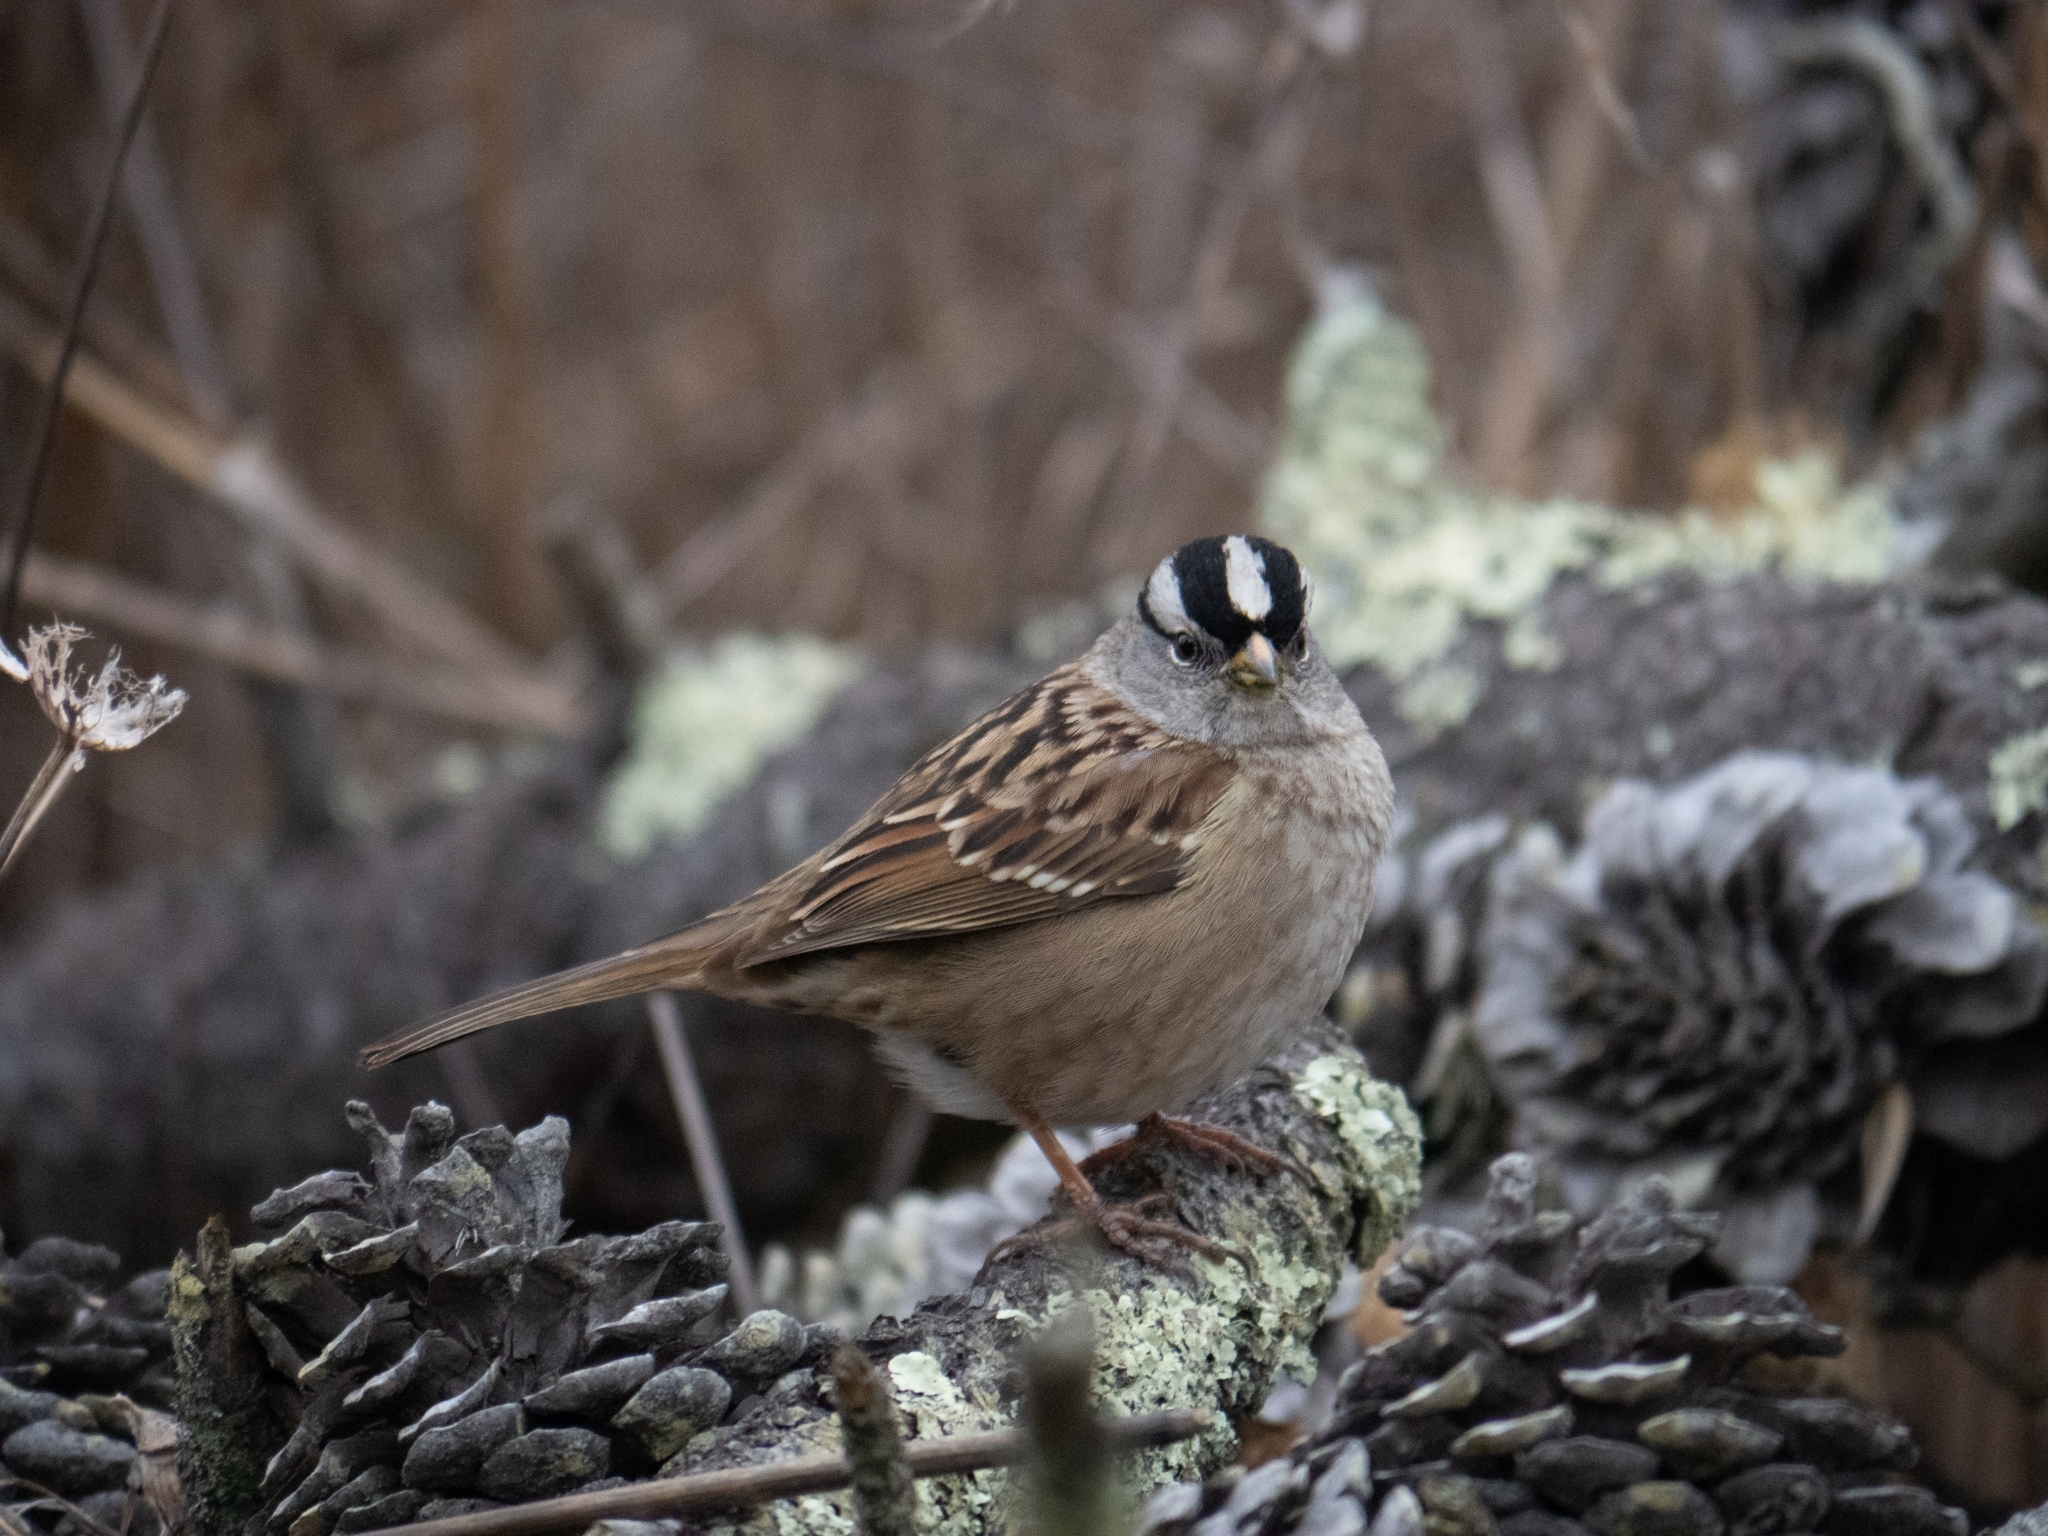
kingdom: Animalia
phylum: Chordata
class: Aves
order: Passeriformes
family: Passerellidae
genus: Zonotrichia
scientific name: Zonotrichia leucophrys
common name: White-crowned sparrow
